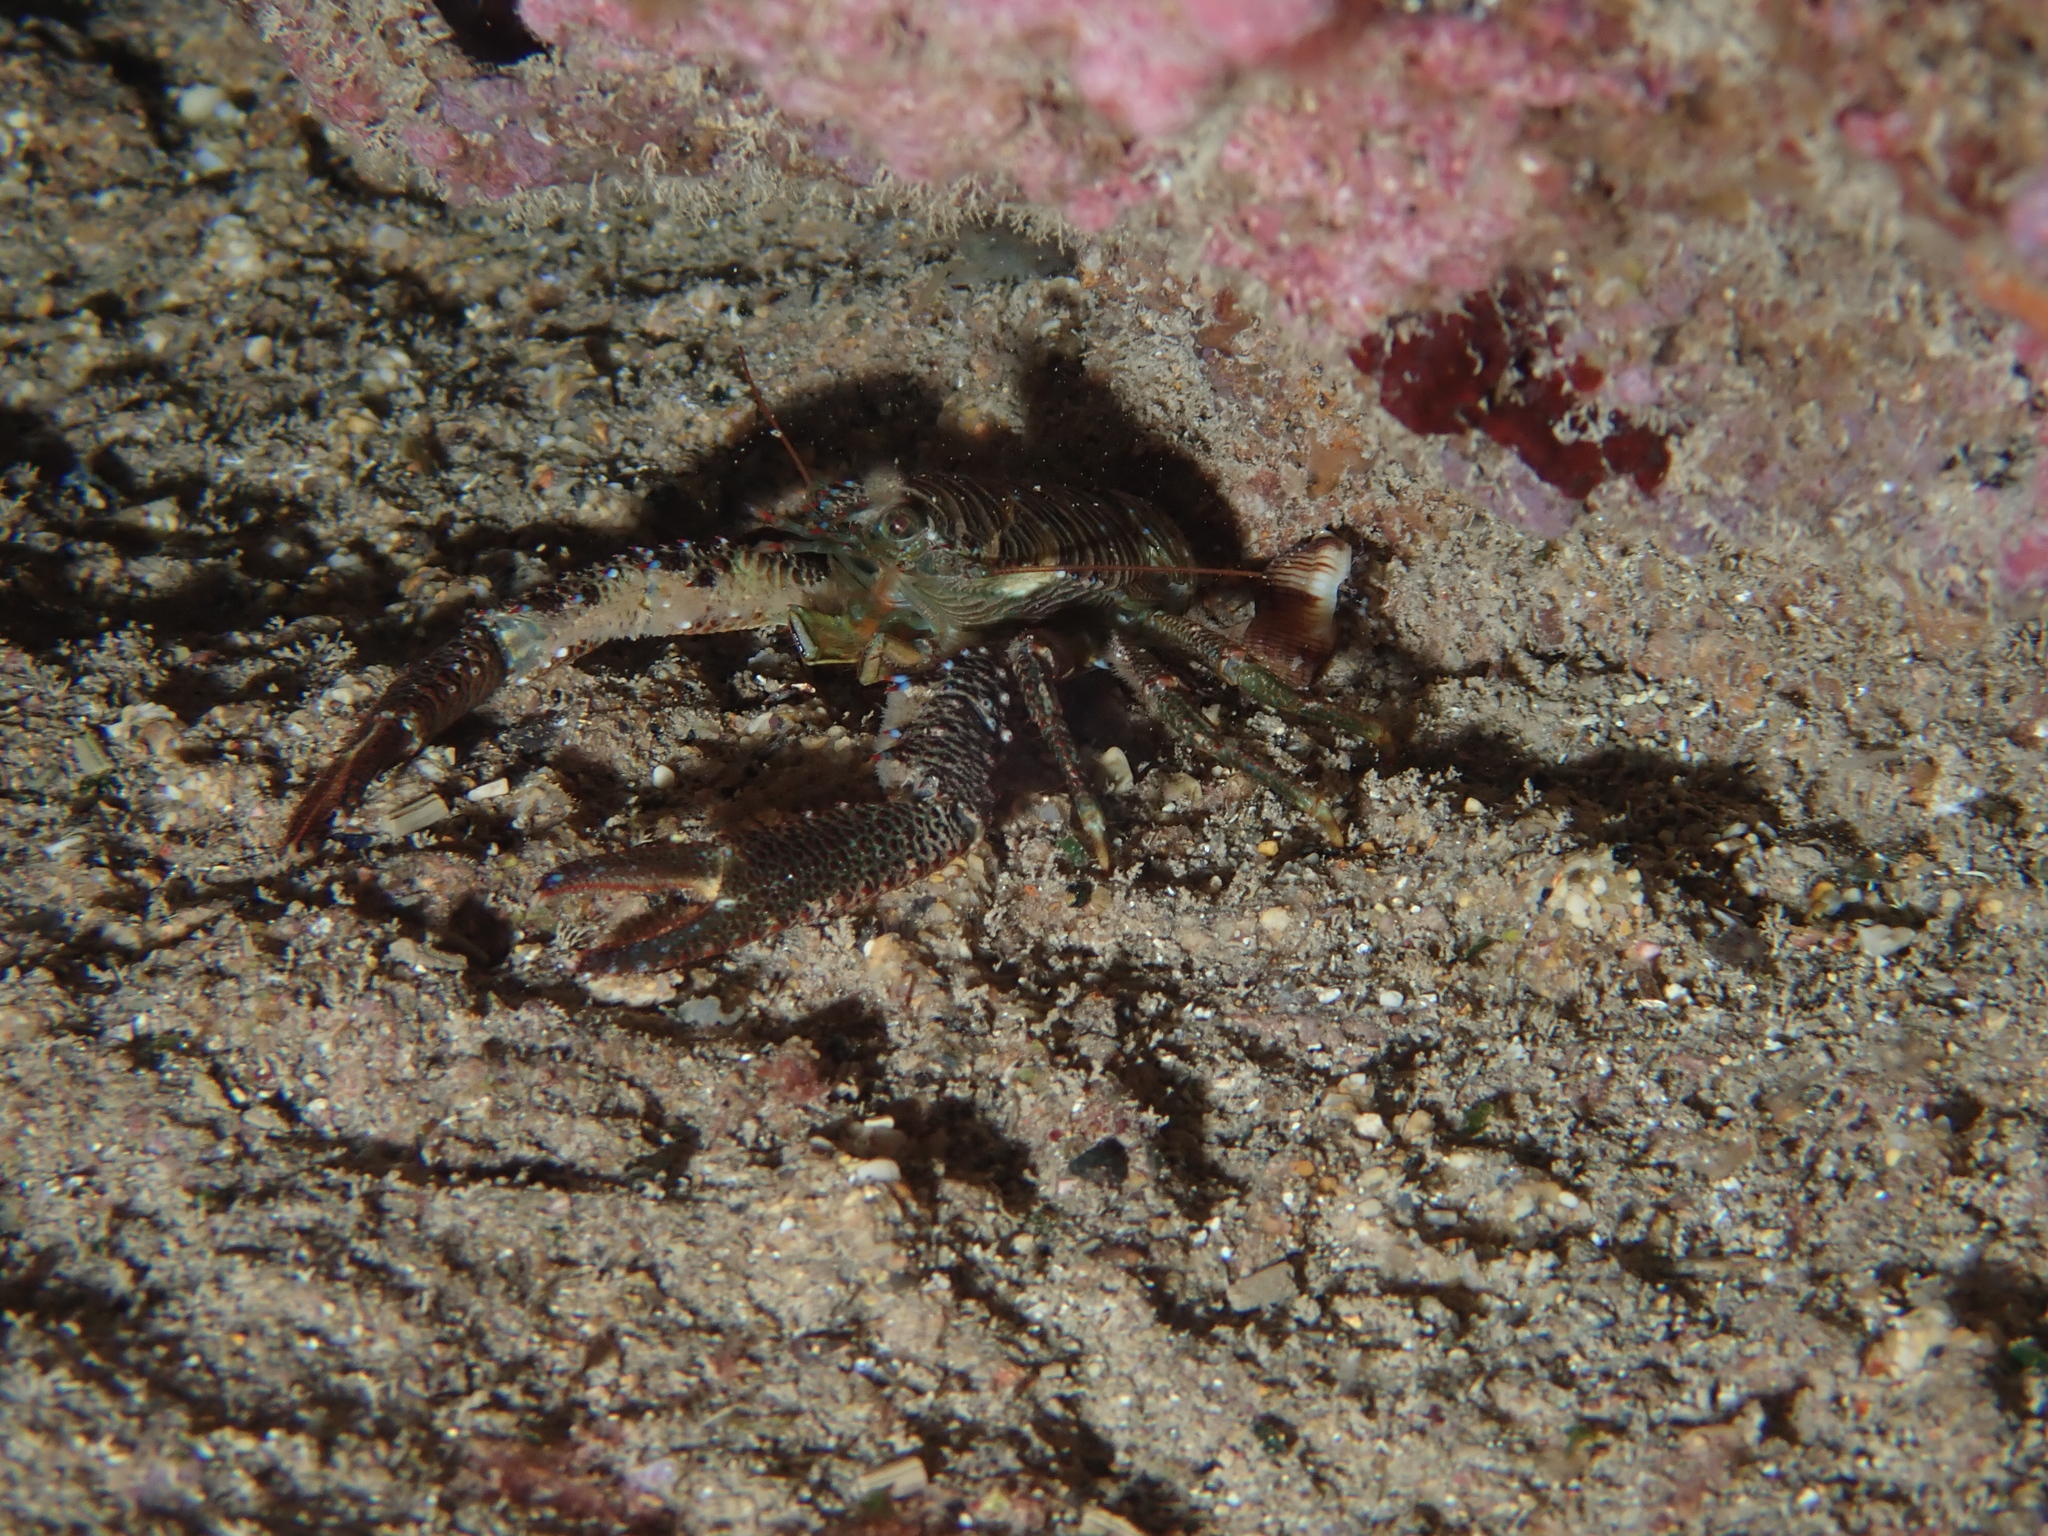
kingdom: Animalia
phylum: Arthropoda
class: Malacostraca
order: Decapoda
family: Galatheidae
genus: Galathea
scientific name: Galathea squamifera
